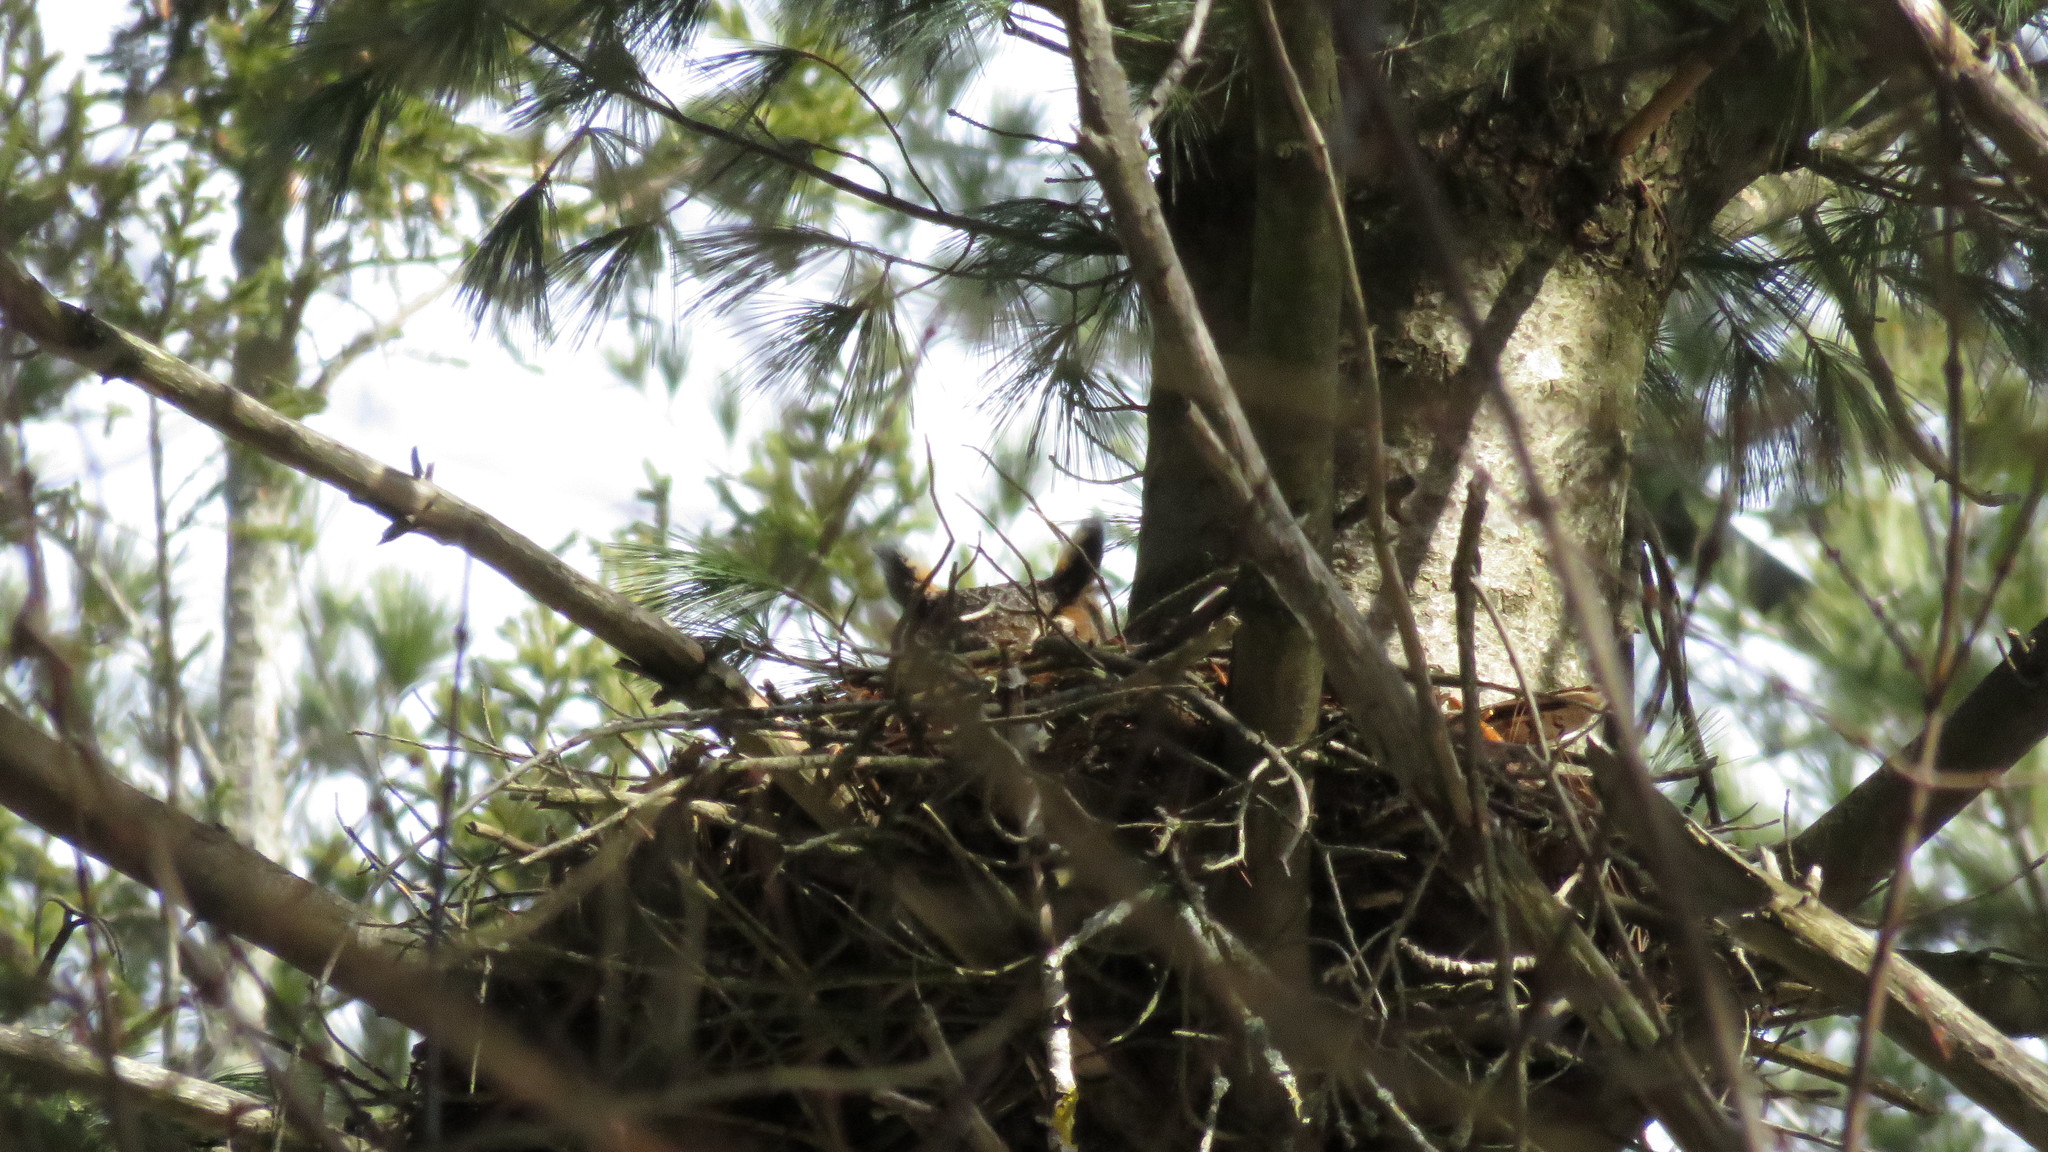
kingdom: Animalia
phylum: Chordata
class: Aves
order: Strigiformes
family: Strigidae
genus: Bubo
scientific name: Bubo virginianus
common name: Great horned owl
